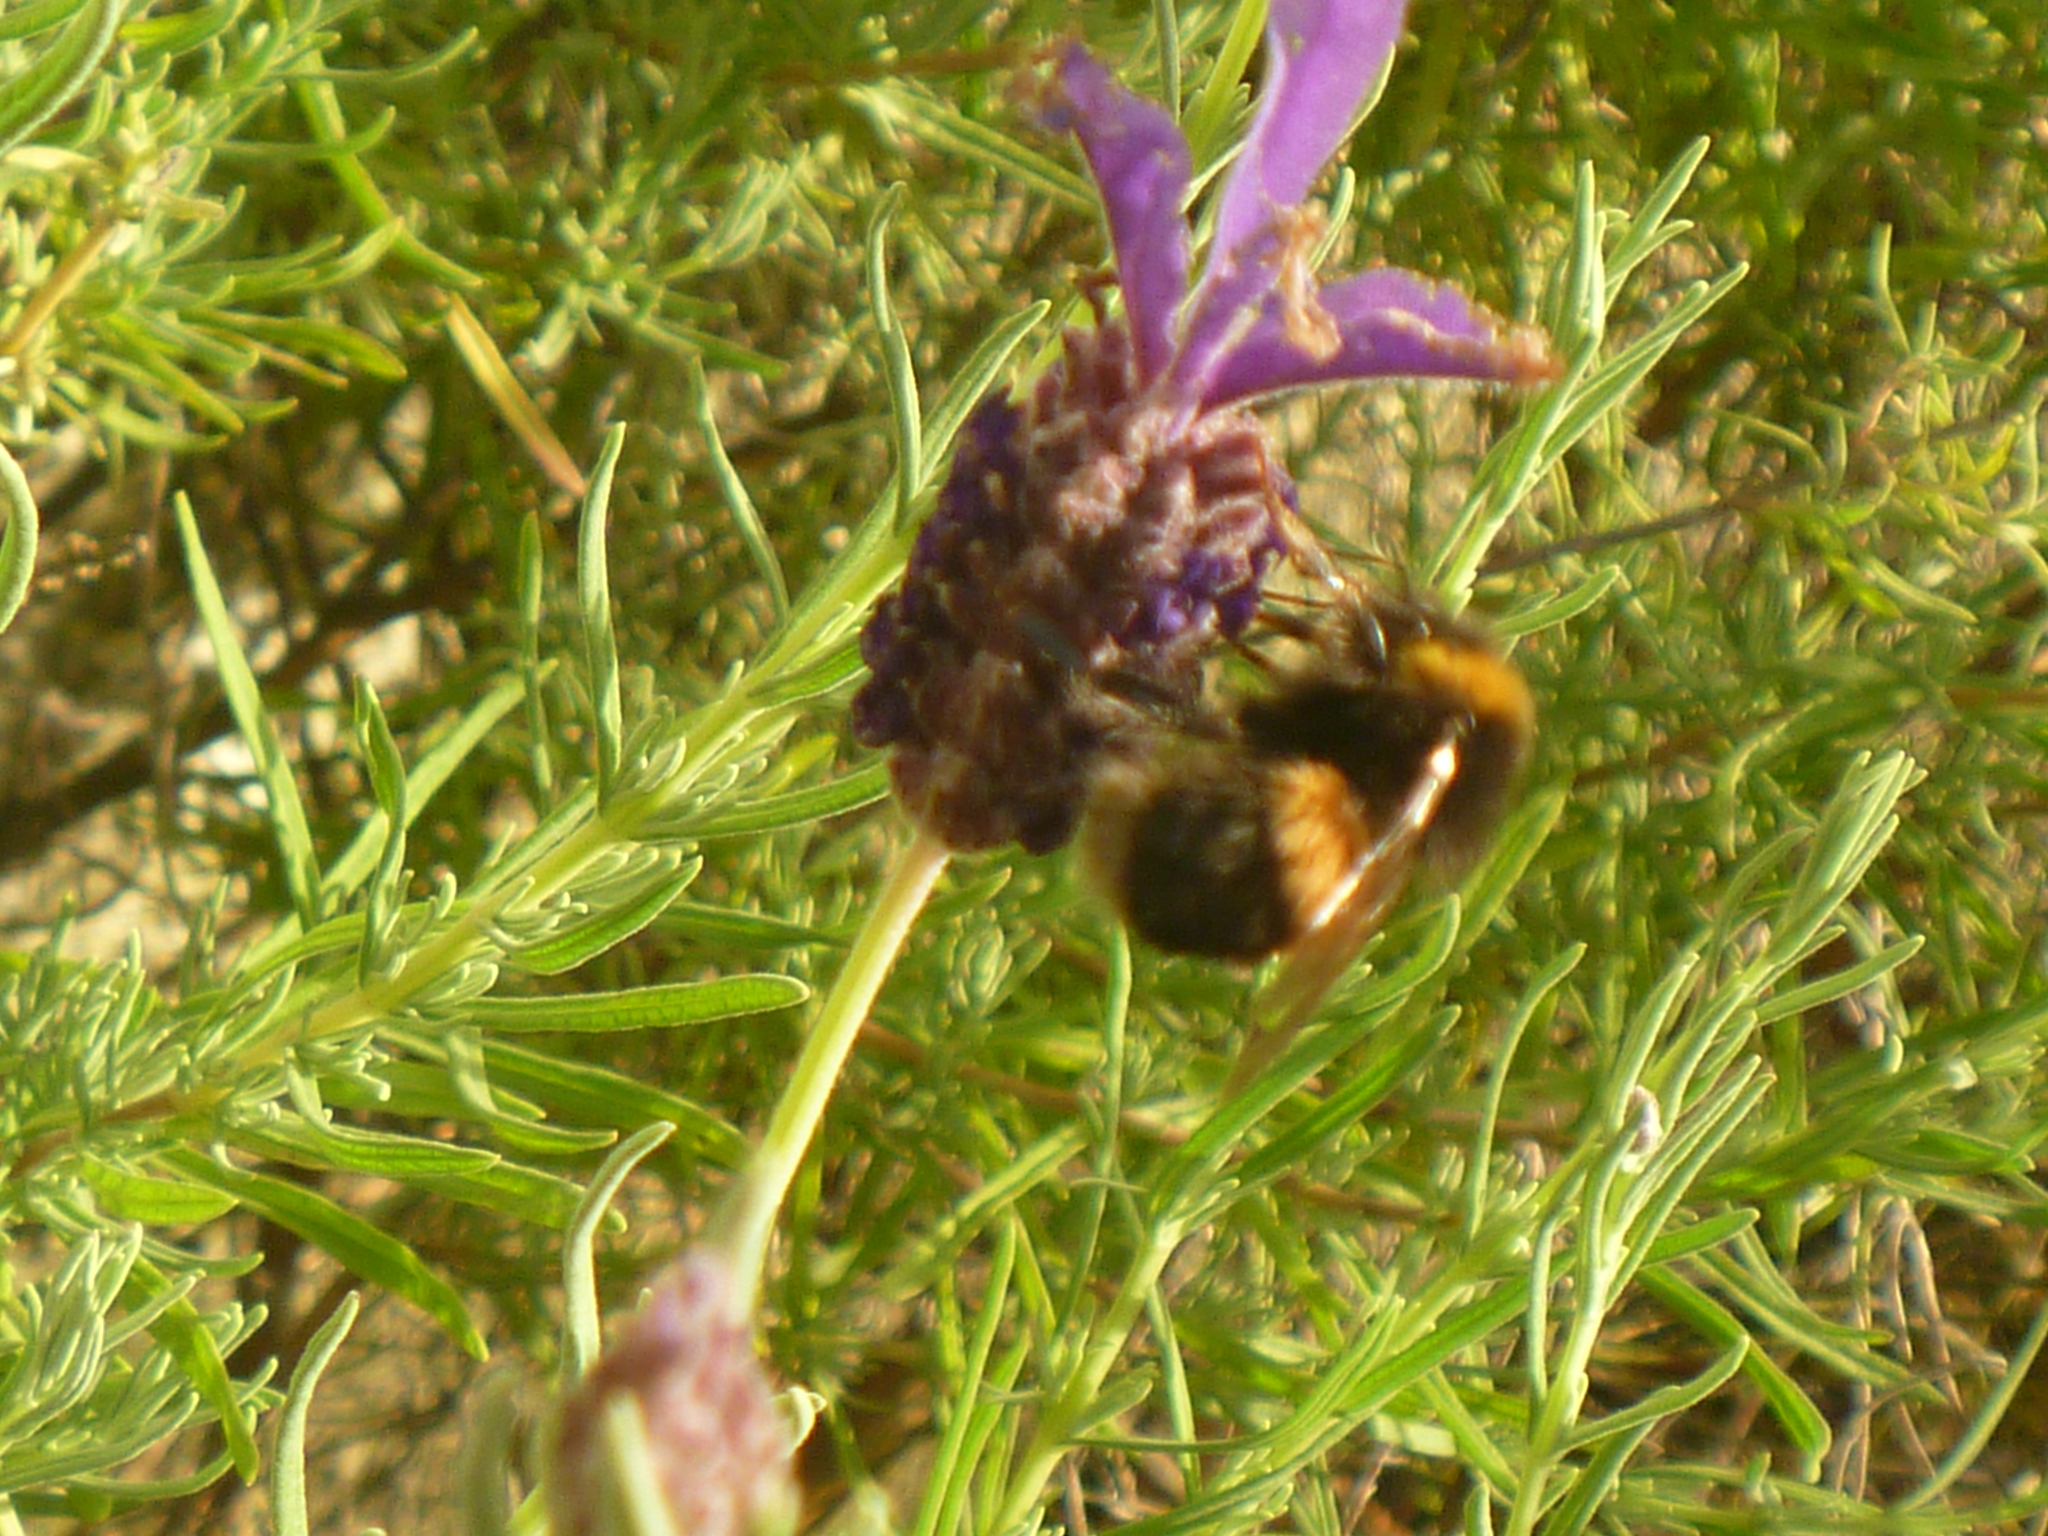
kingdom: Animalia
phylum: Arthropoda
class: Insecta
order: Hymenoptera
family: Apidae
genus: Bombus
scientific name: Bombus terrestris
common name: Buff-tailed bumblebee
